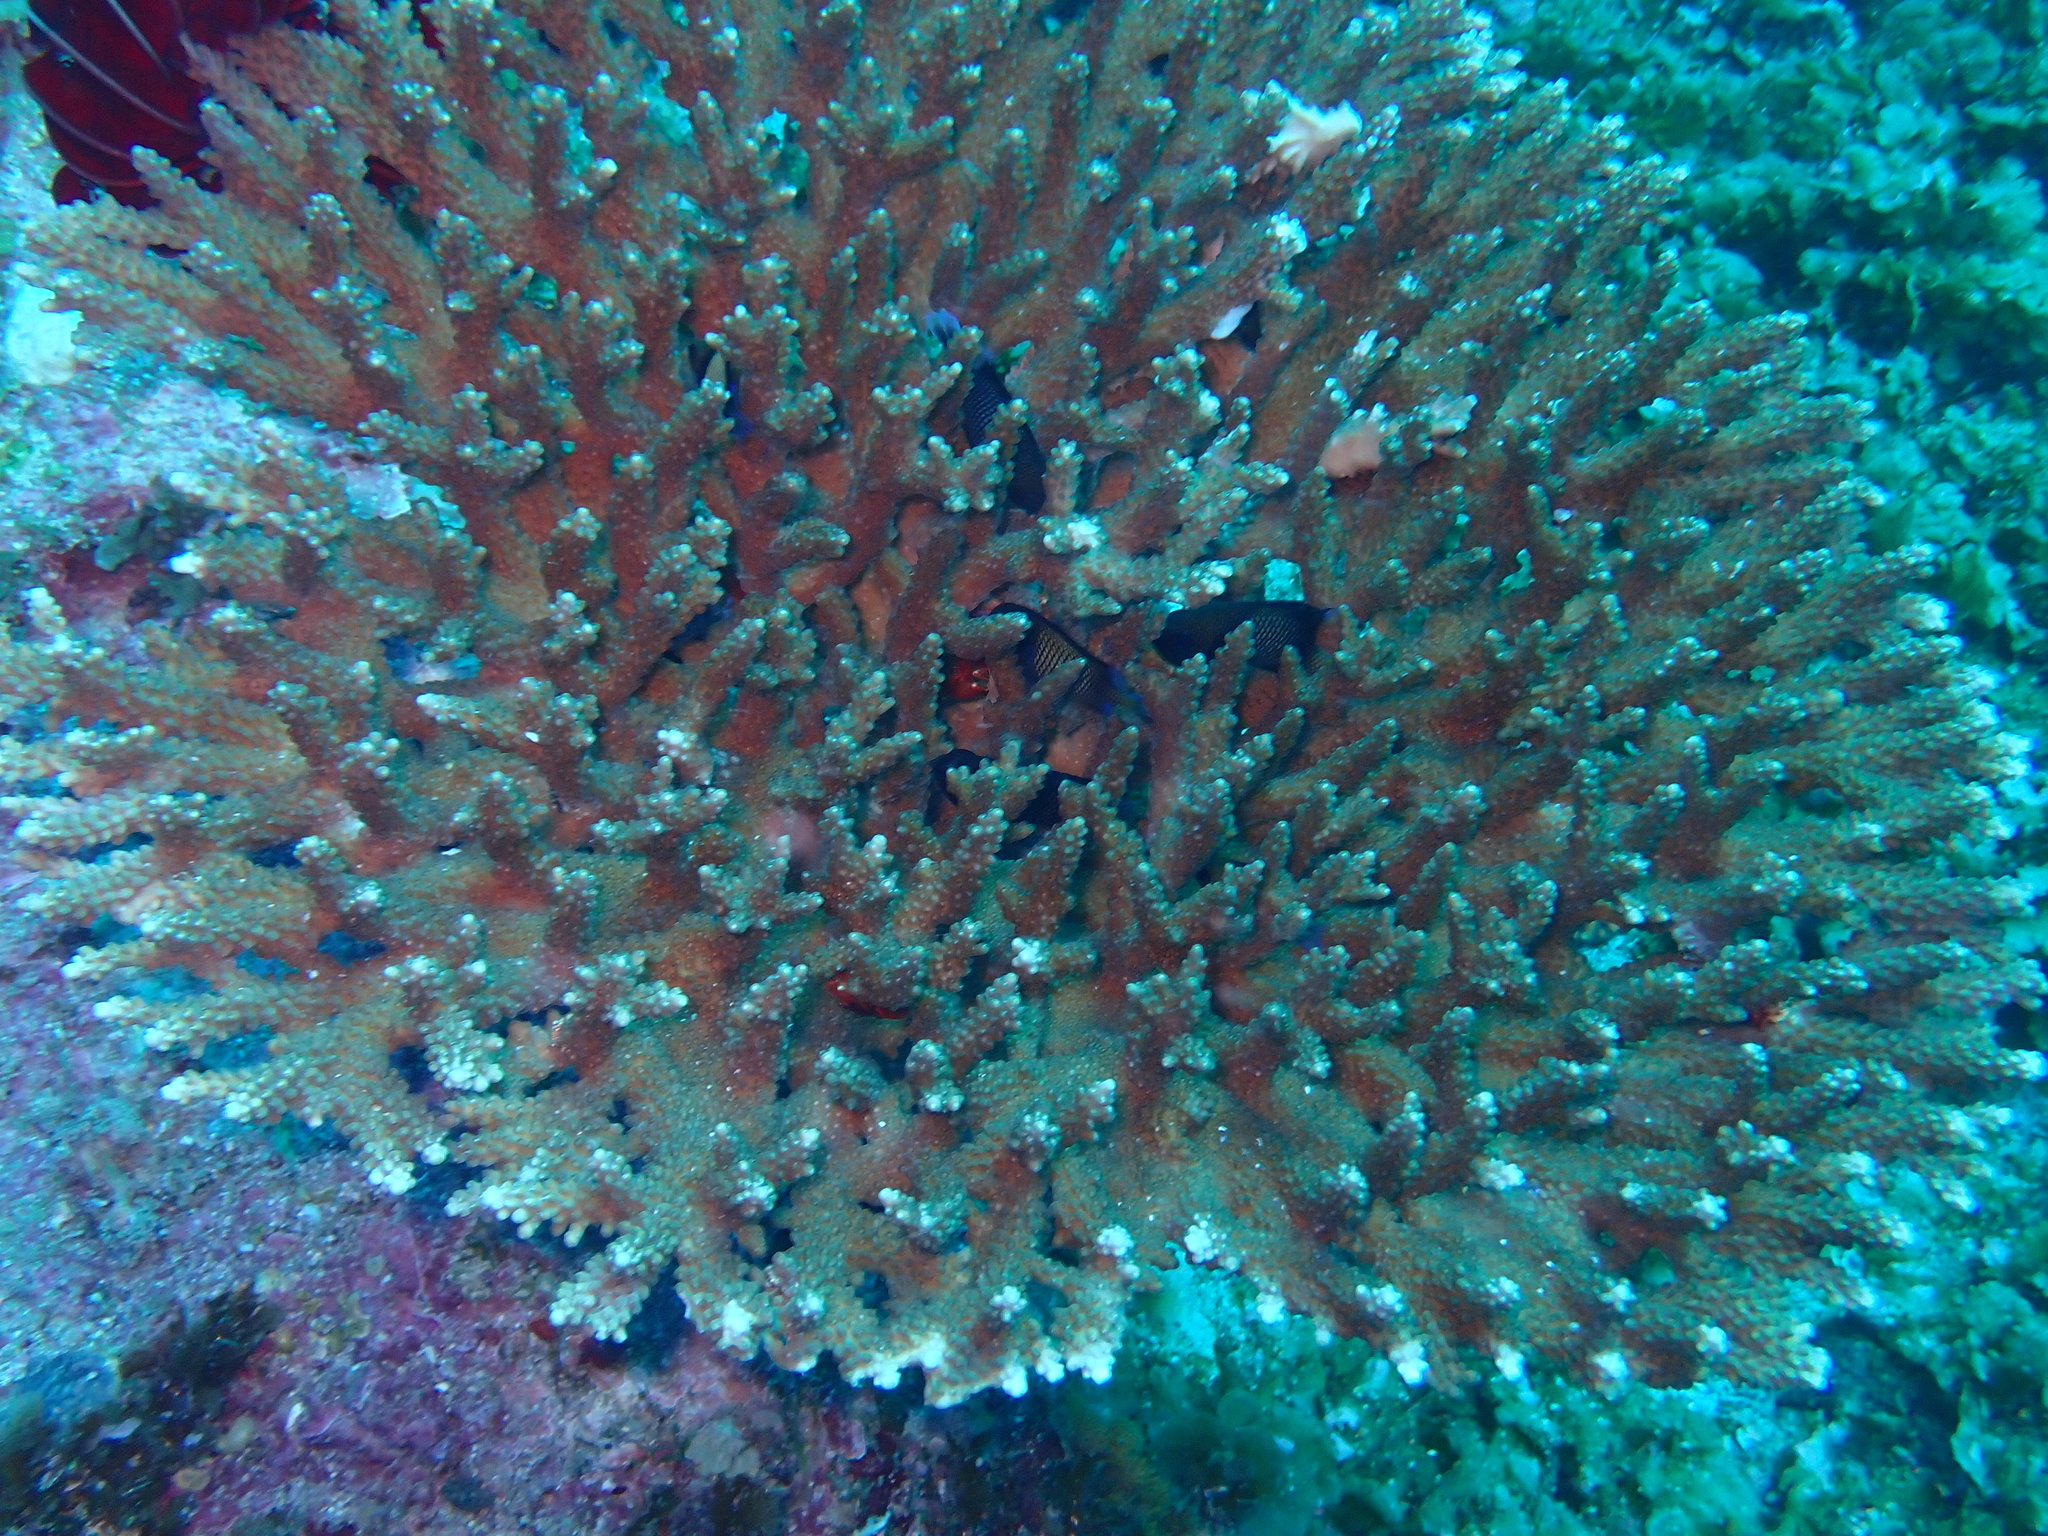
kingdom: Animalia
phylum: Cnidaria
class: Anthozoa
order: Scleractinia
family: Acroporidae
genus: Acropora
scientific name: Acropora solitaryensis
